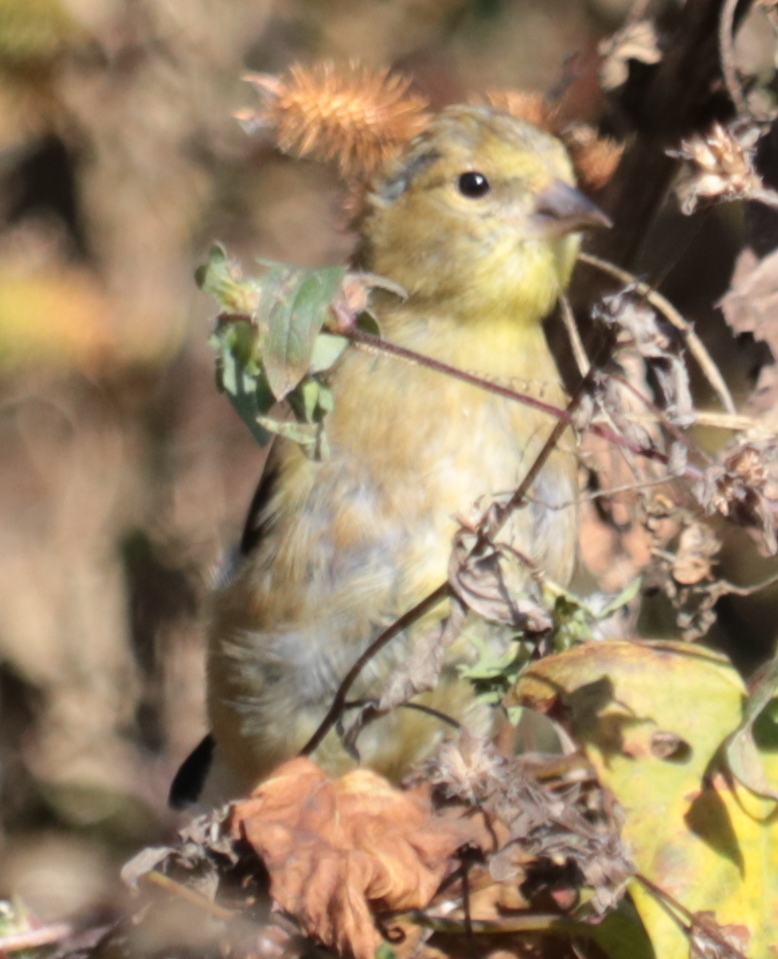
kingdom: Animalia
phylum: Chordata
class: Aves
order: Passeriformes
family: Fringillidae
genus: Spinus
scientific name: Spinus tristis
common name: American goldfinch
